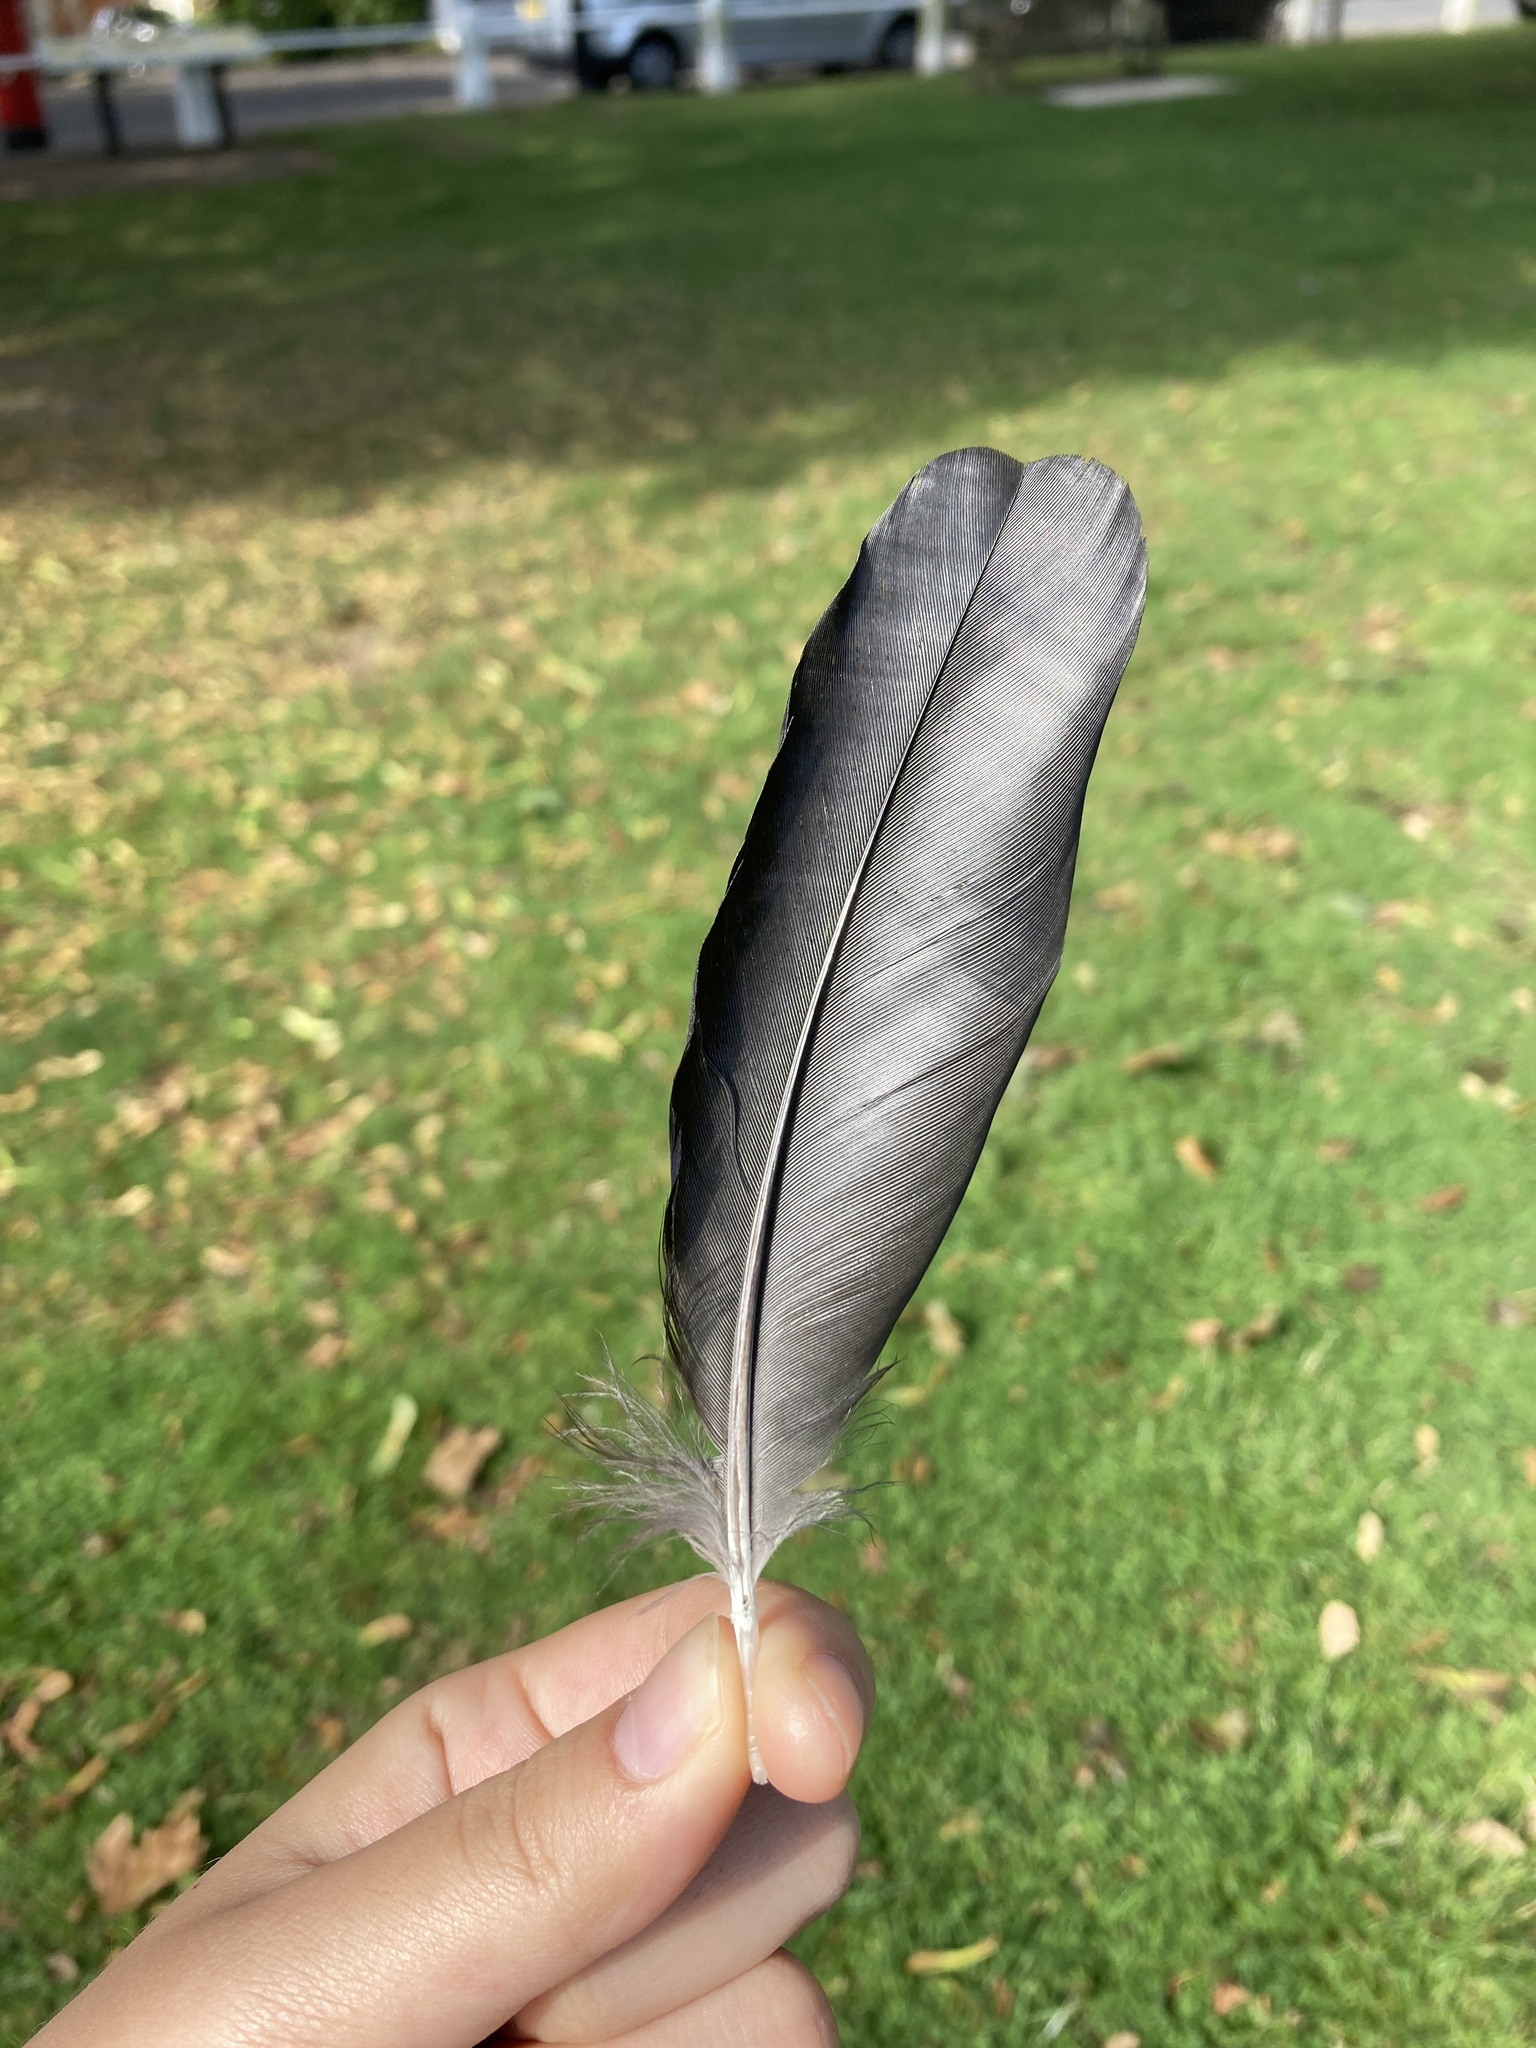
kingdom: Animalia
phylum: Chordata
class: Aves
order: Passeriformes
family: Corvidae
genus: Coloeus
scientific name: Coloeus monedula
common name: Western jackdaw
